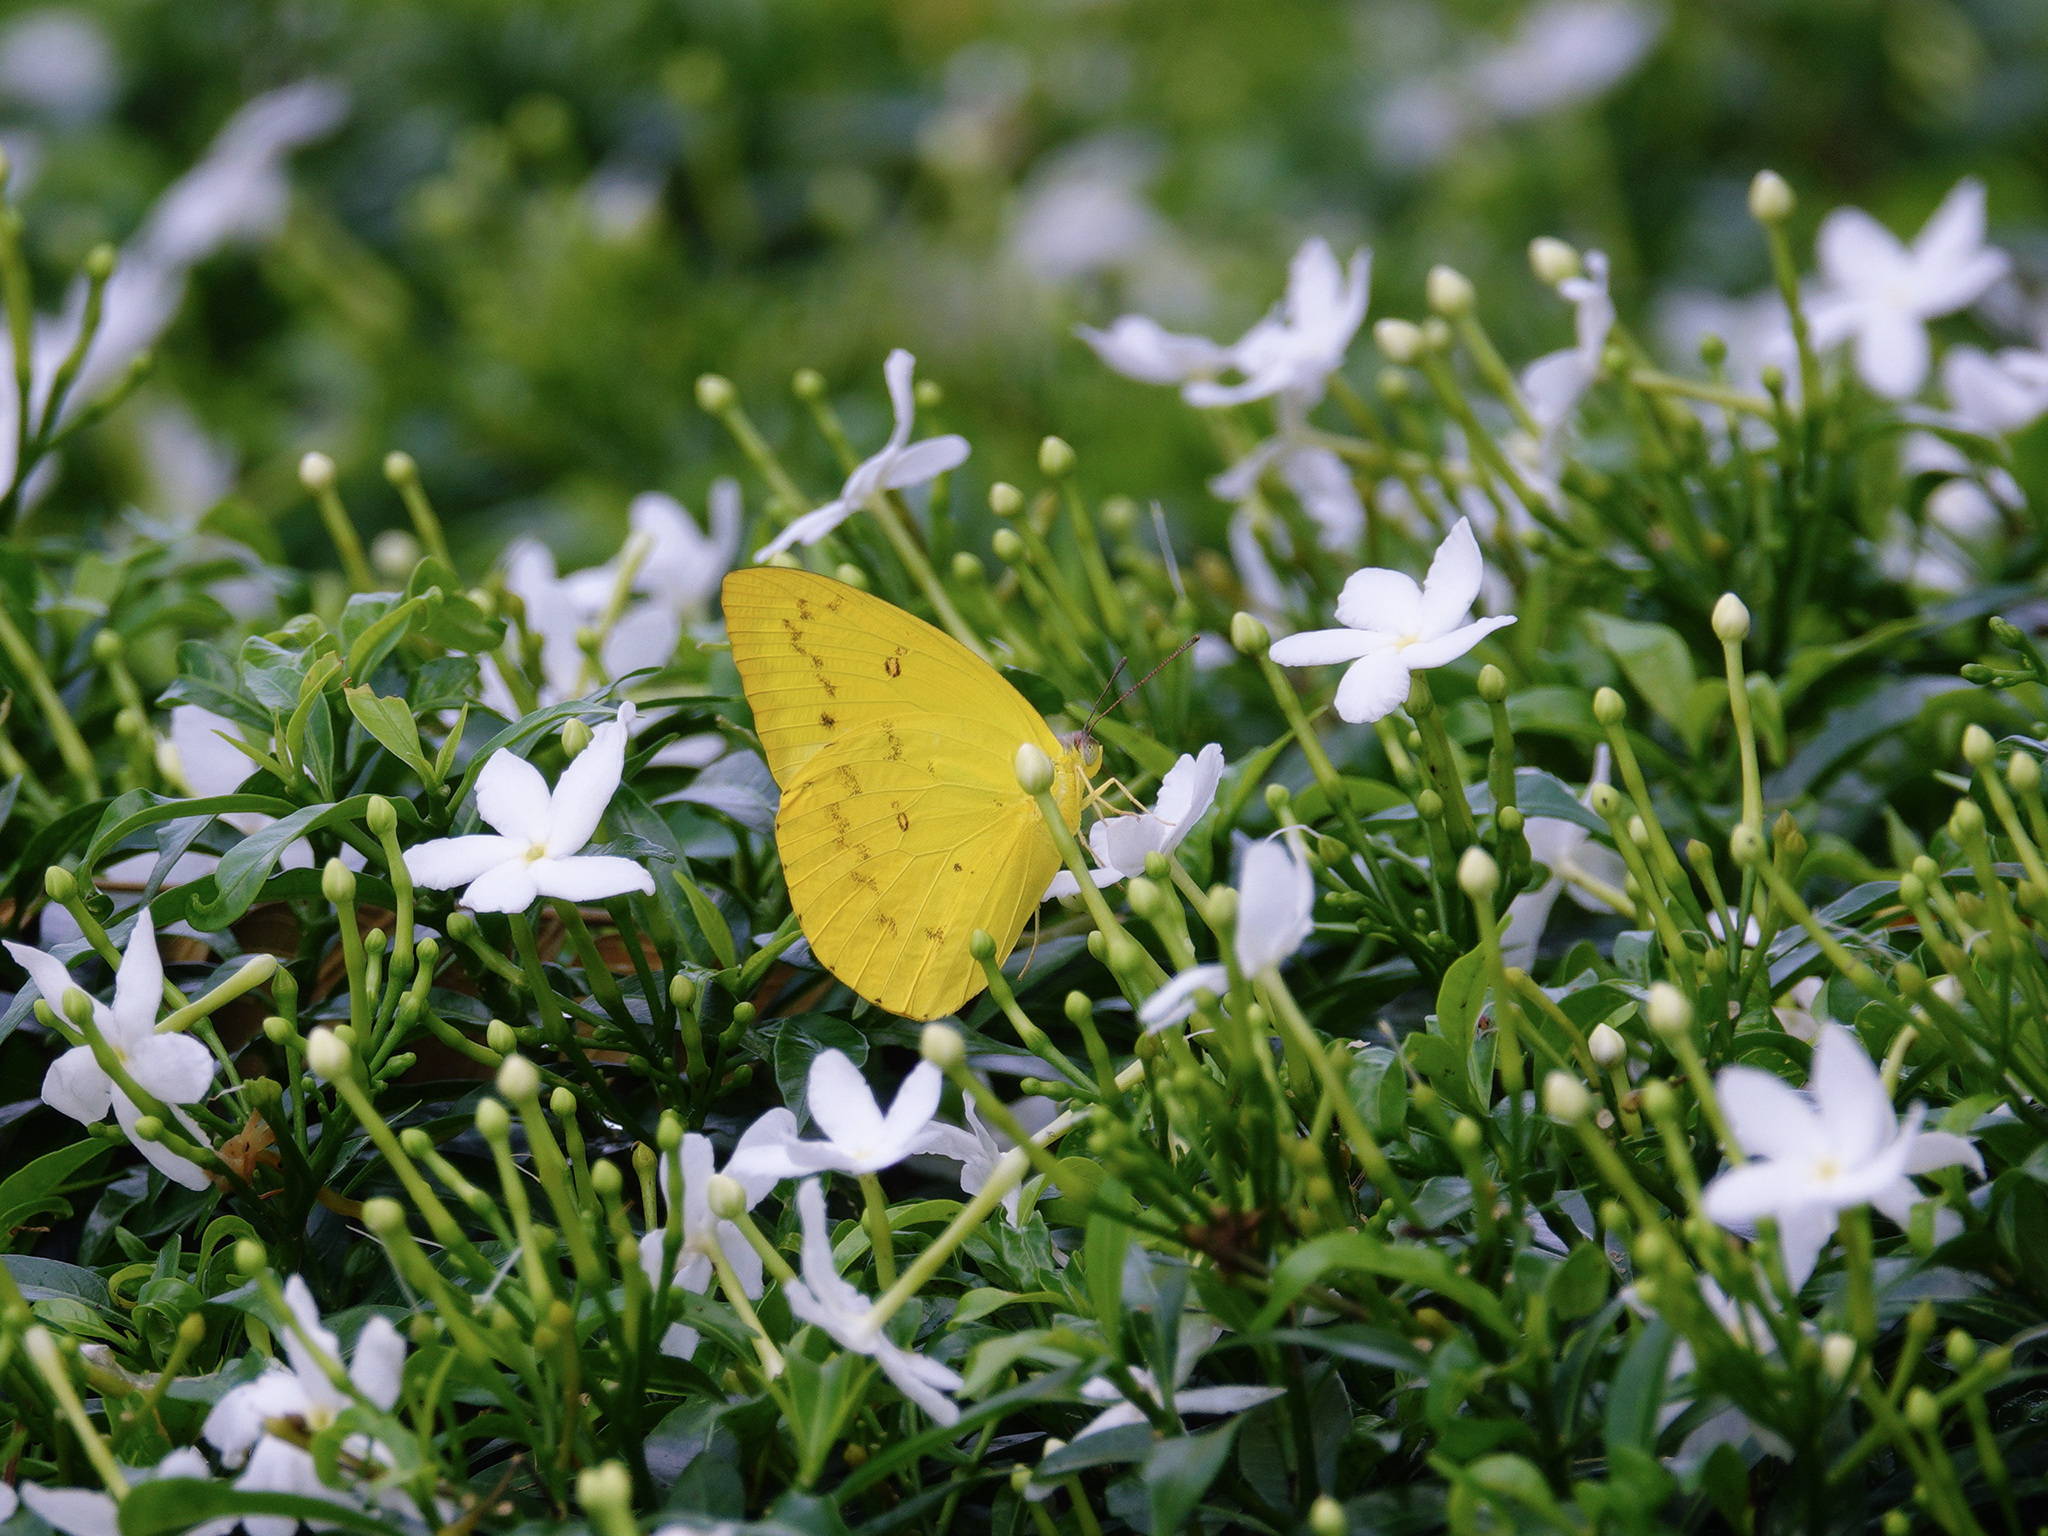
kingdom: Animalia
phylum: Arthropoda
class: Insecta
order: Lepidoptera
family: Pieridae
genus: Catopsilia
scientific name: Catopsilia scylla
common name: Orange emigrant
